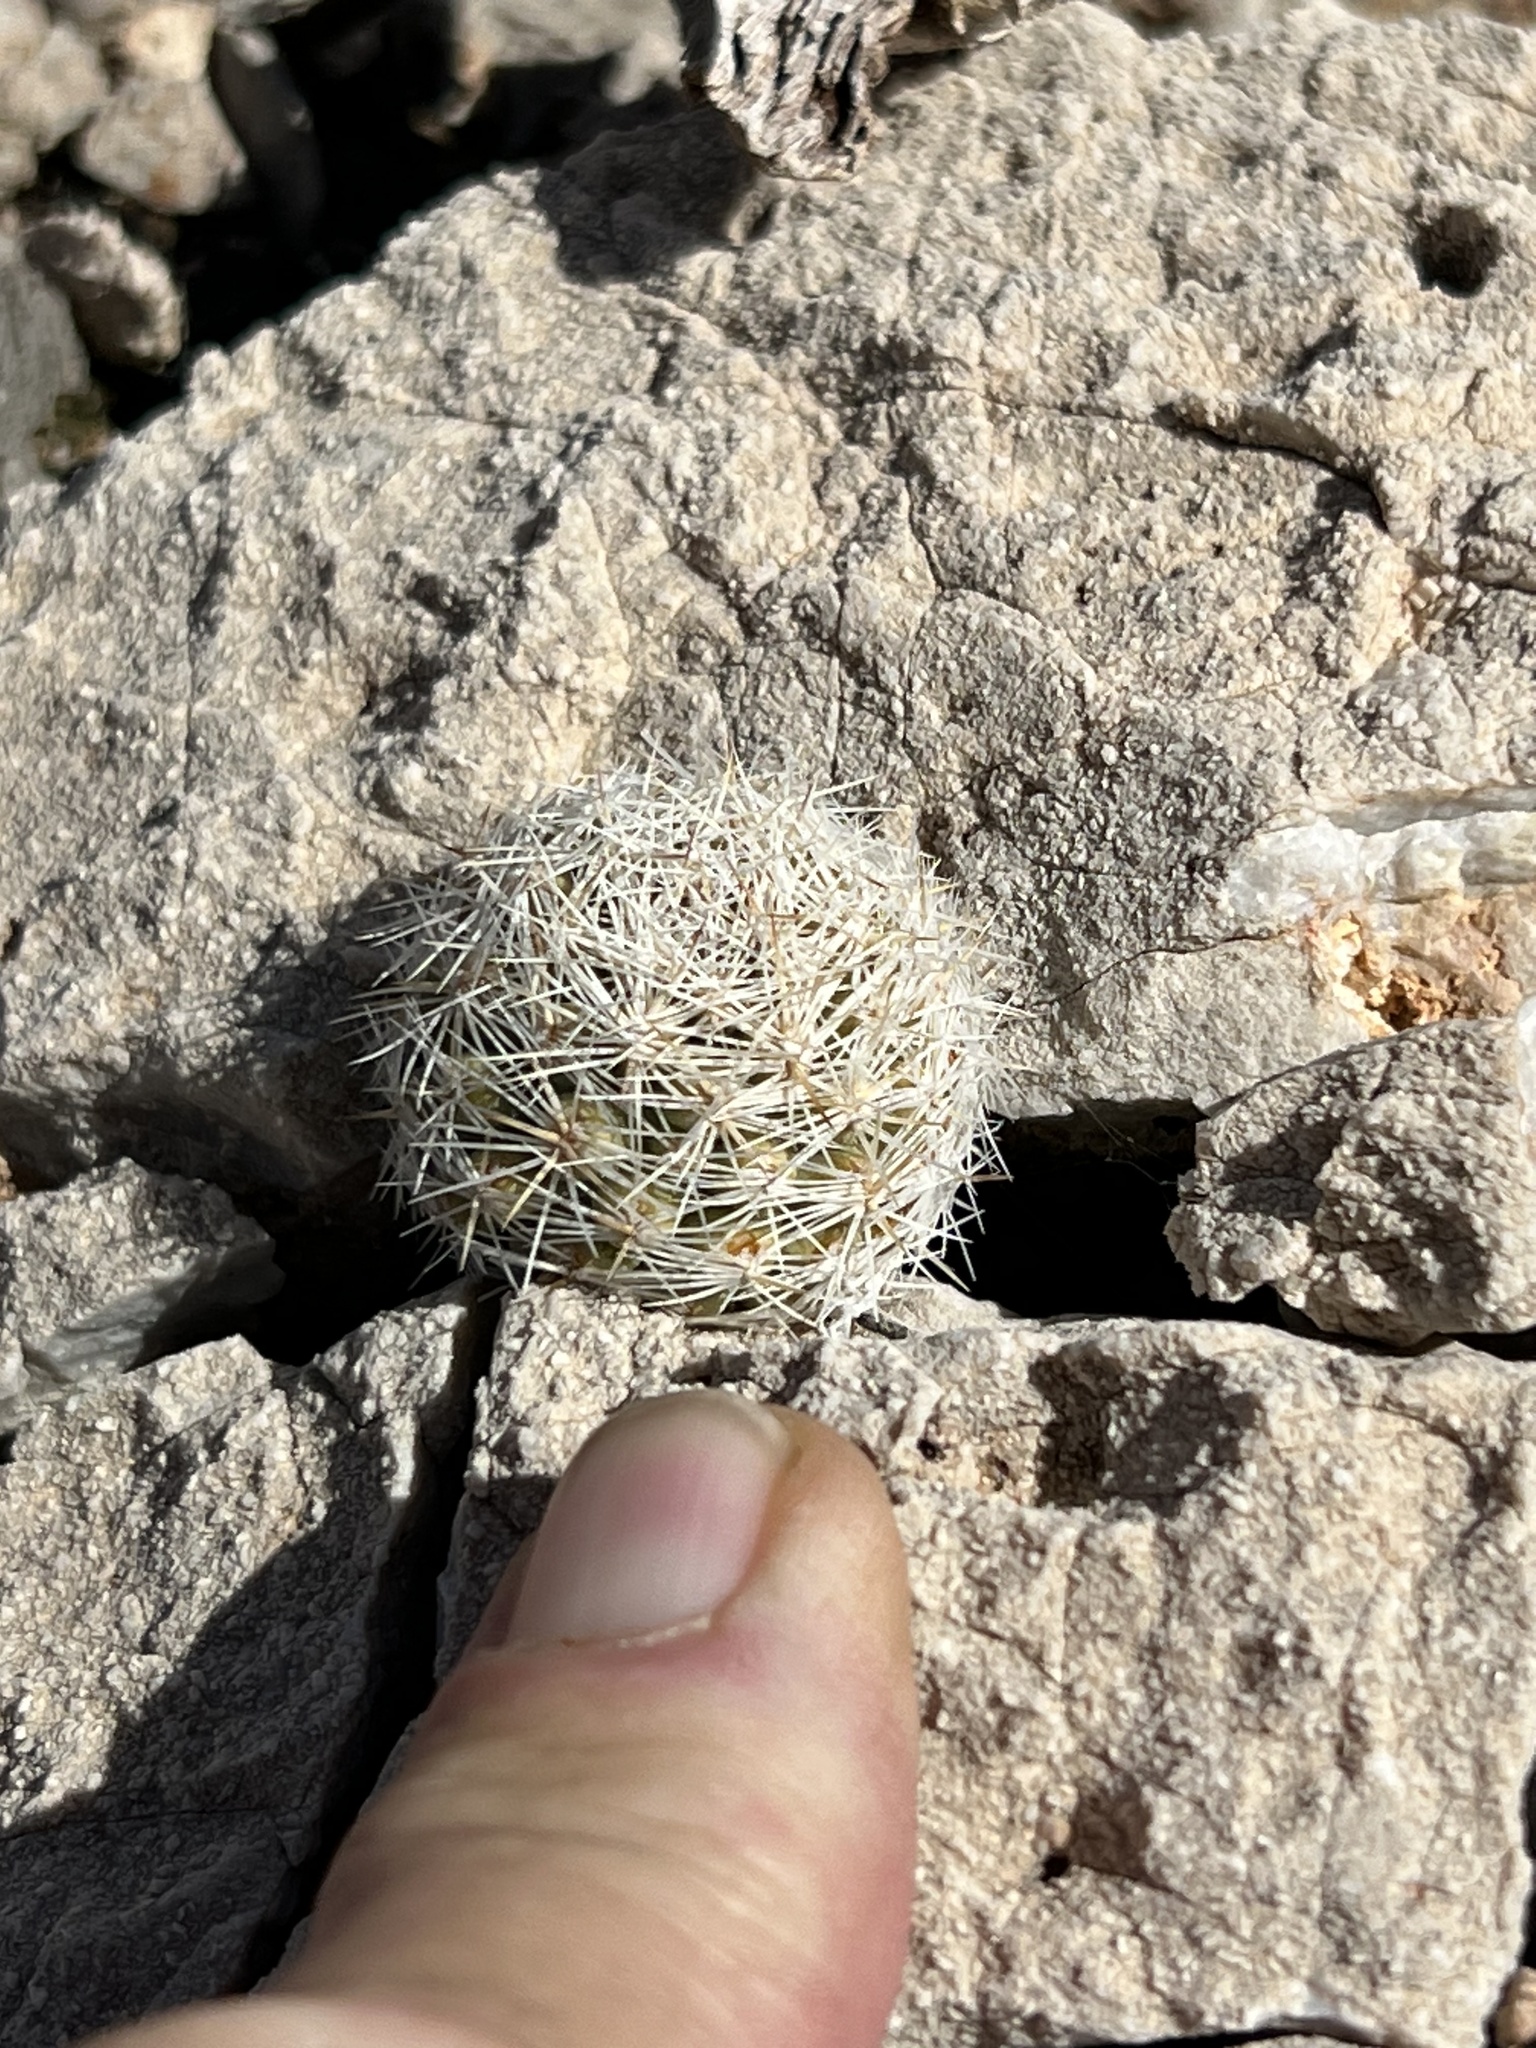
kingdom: Plantae
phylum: Tracheophyta
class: Magnoliopsida
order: Caryophyllales
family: Cactaceae
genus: Pelecyphora
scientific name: Pelecyphora dasyacantha
